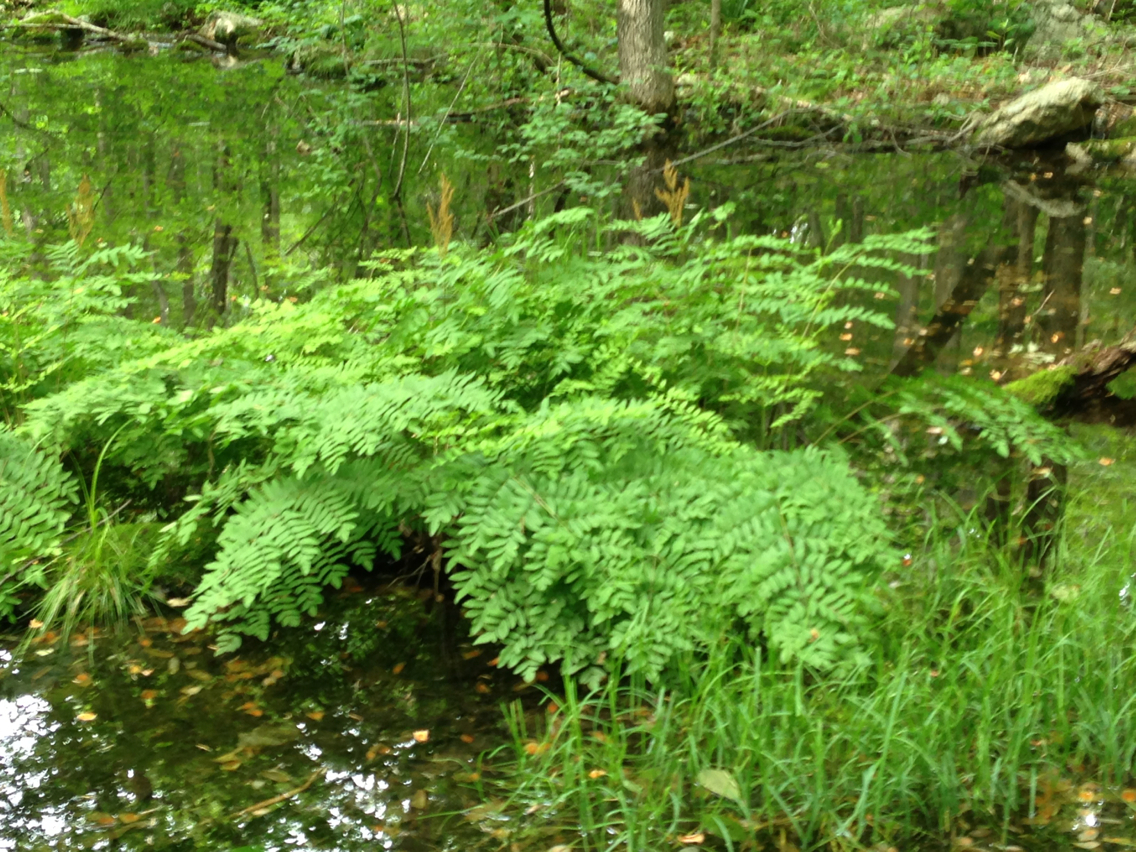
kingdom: Plantae
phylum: Tracheophyta
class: Polypodiopsida
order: Osmundales
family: Osmundaceae
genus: Osmunda
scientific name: Osmunda spectabilis
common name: American royal fern
